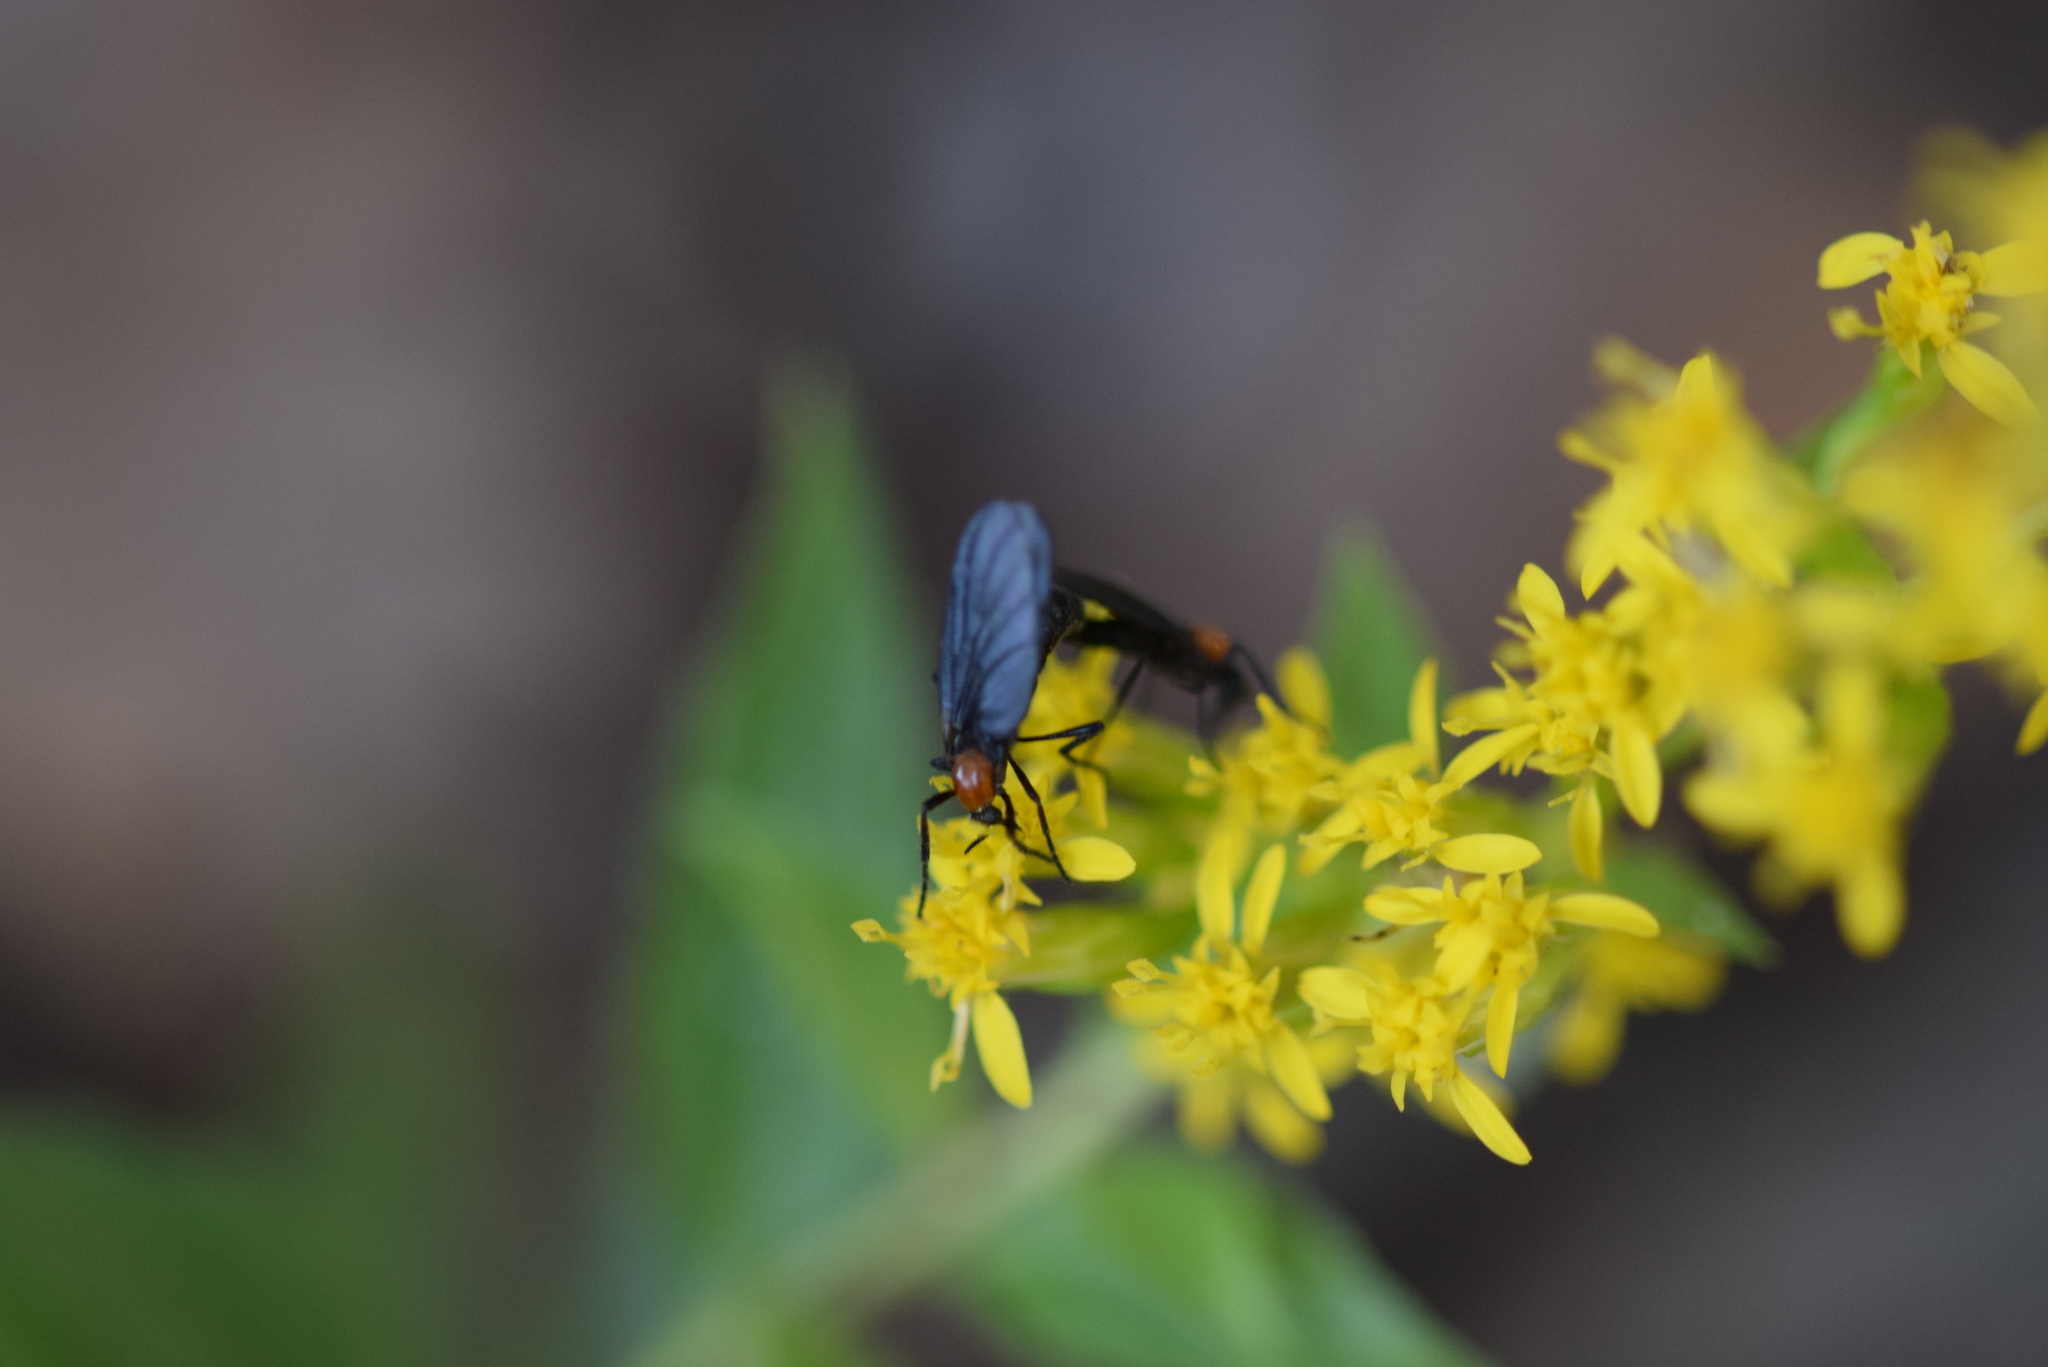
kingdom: Animalia
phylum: Arthropoda
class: Insecta
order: Diptera
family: Bibionidae
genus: Plecia
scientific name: Plecia nearctica
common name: March fly
